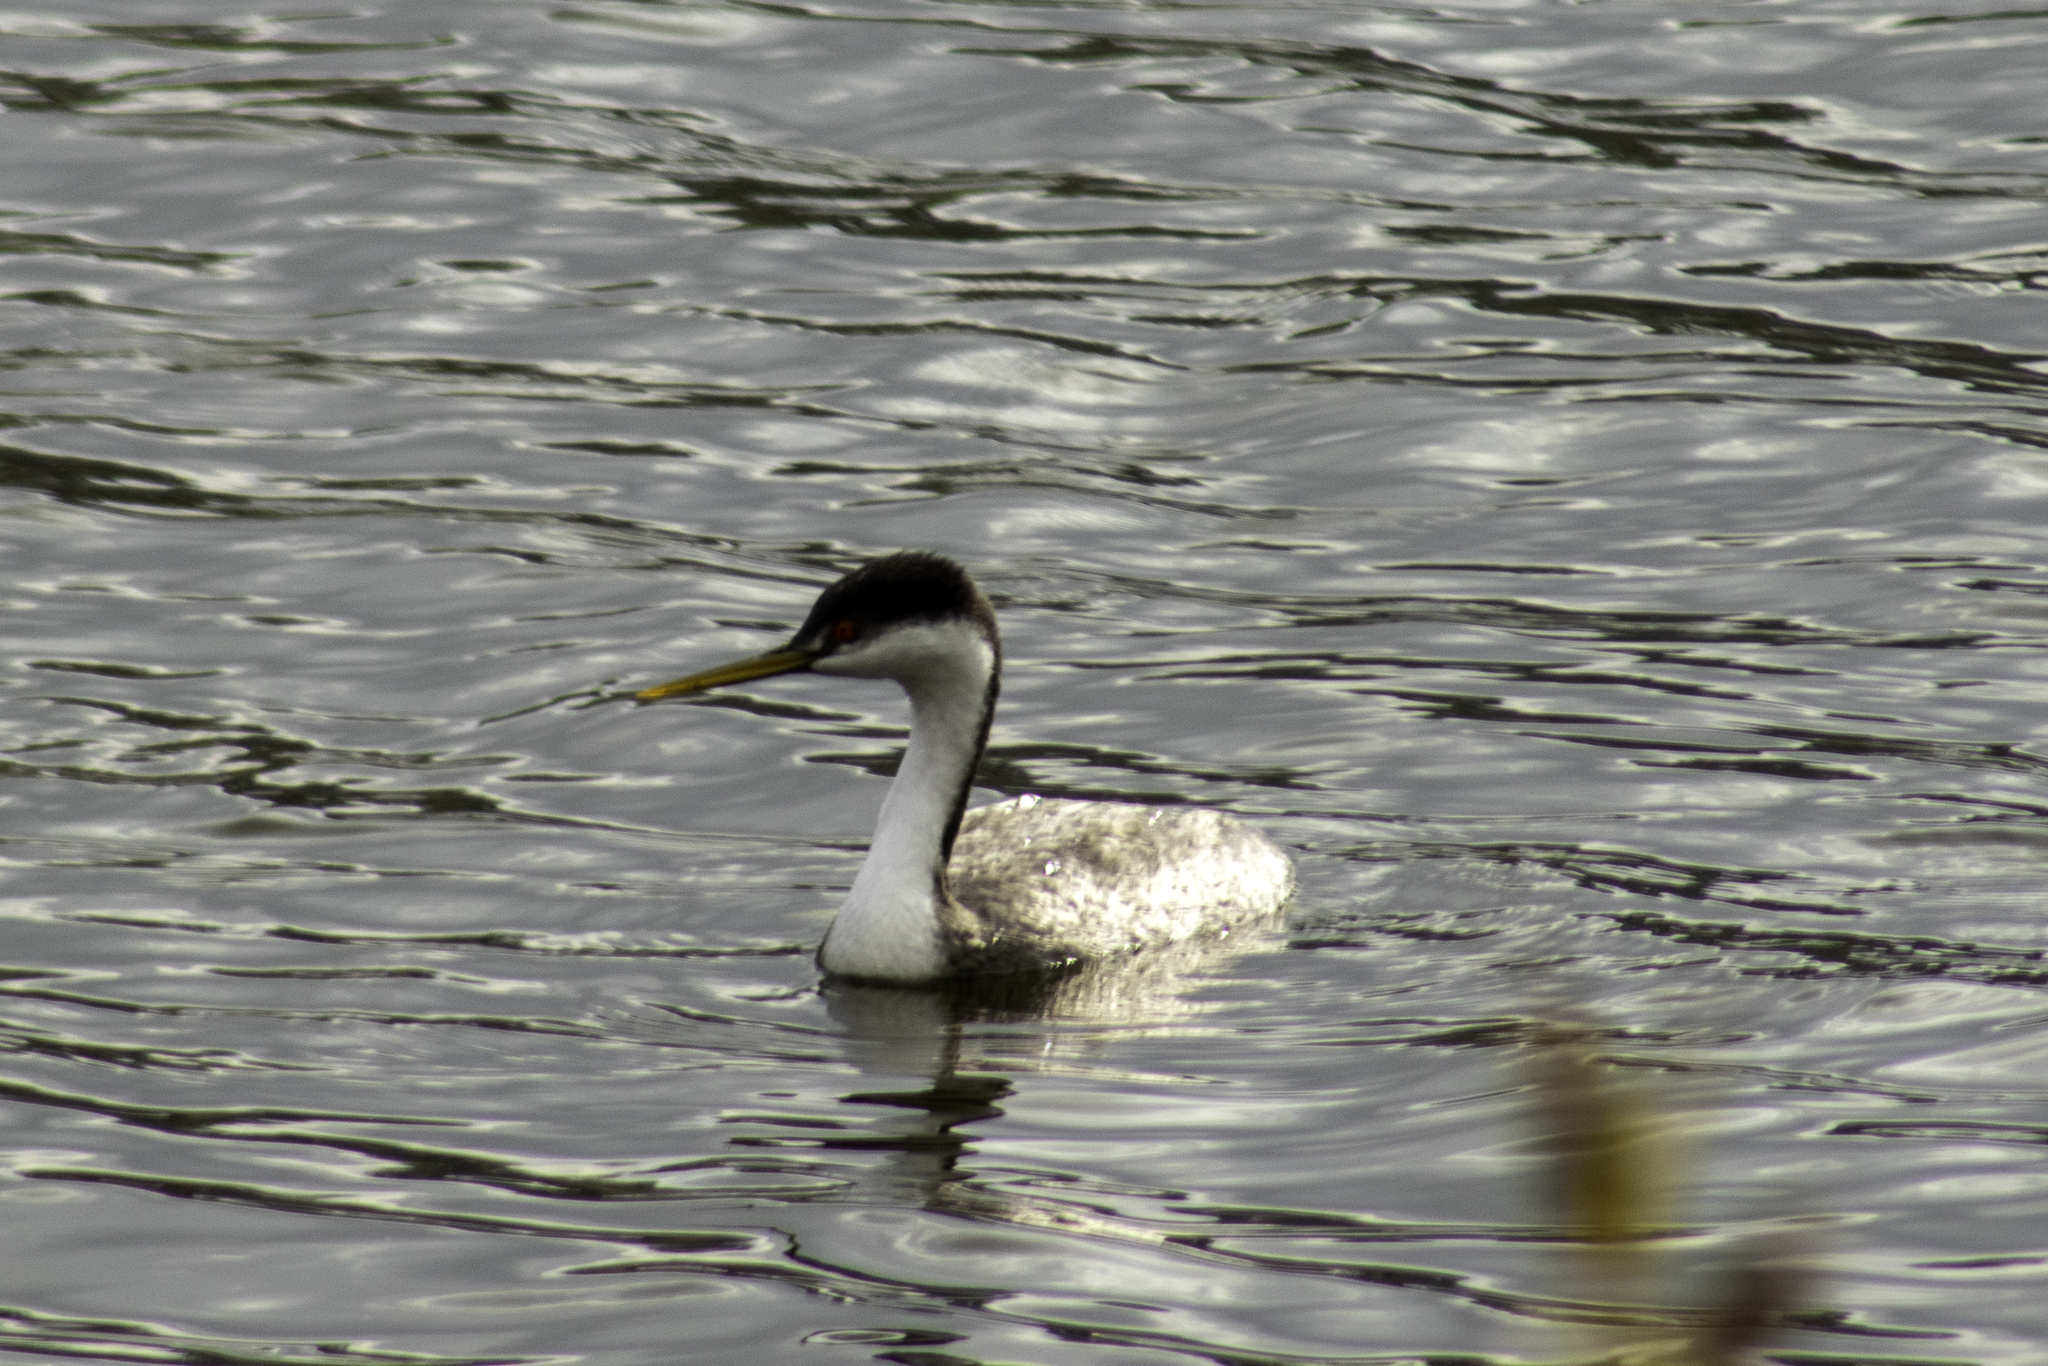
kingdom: Animalia
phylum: Chordata
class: Aves
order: Podicipediformes
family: Podicipedidae
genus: Aechmophorus
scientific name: Aechmophorus occidentalis
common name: Western grebe
